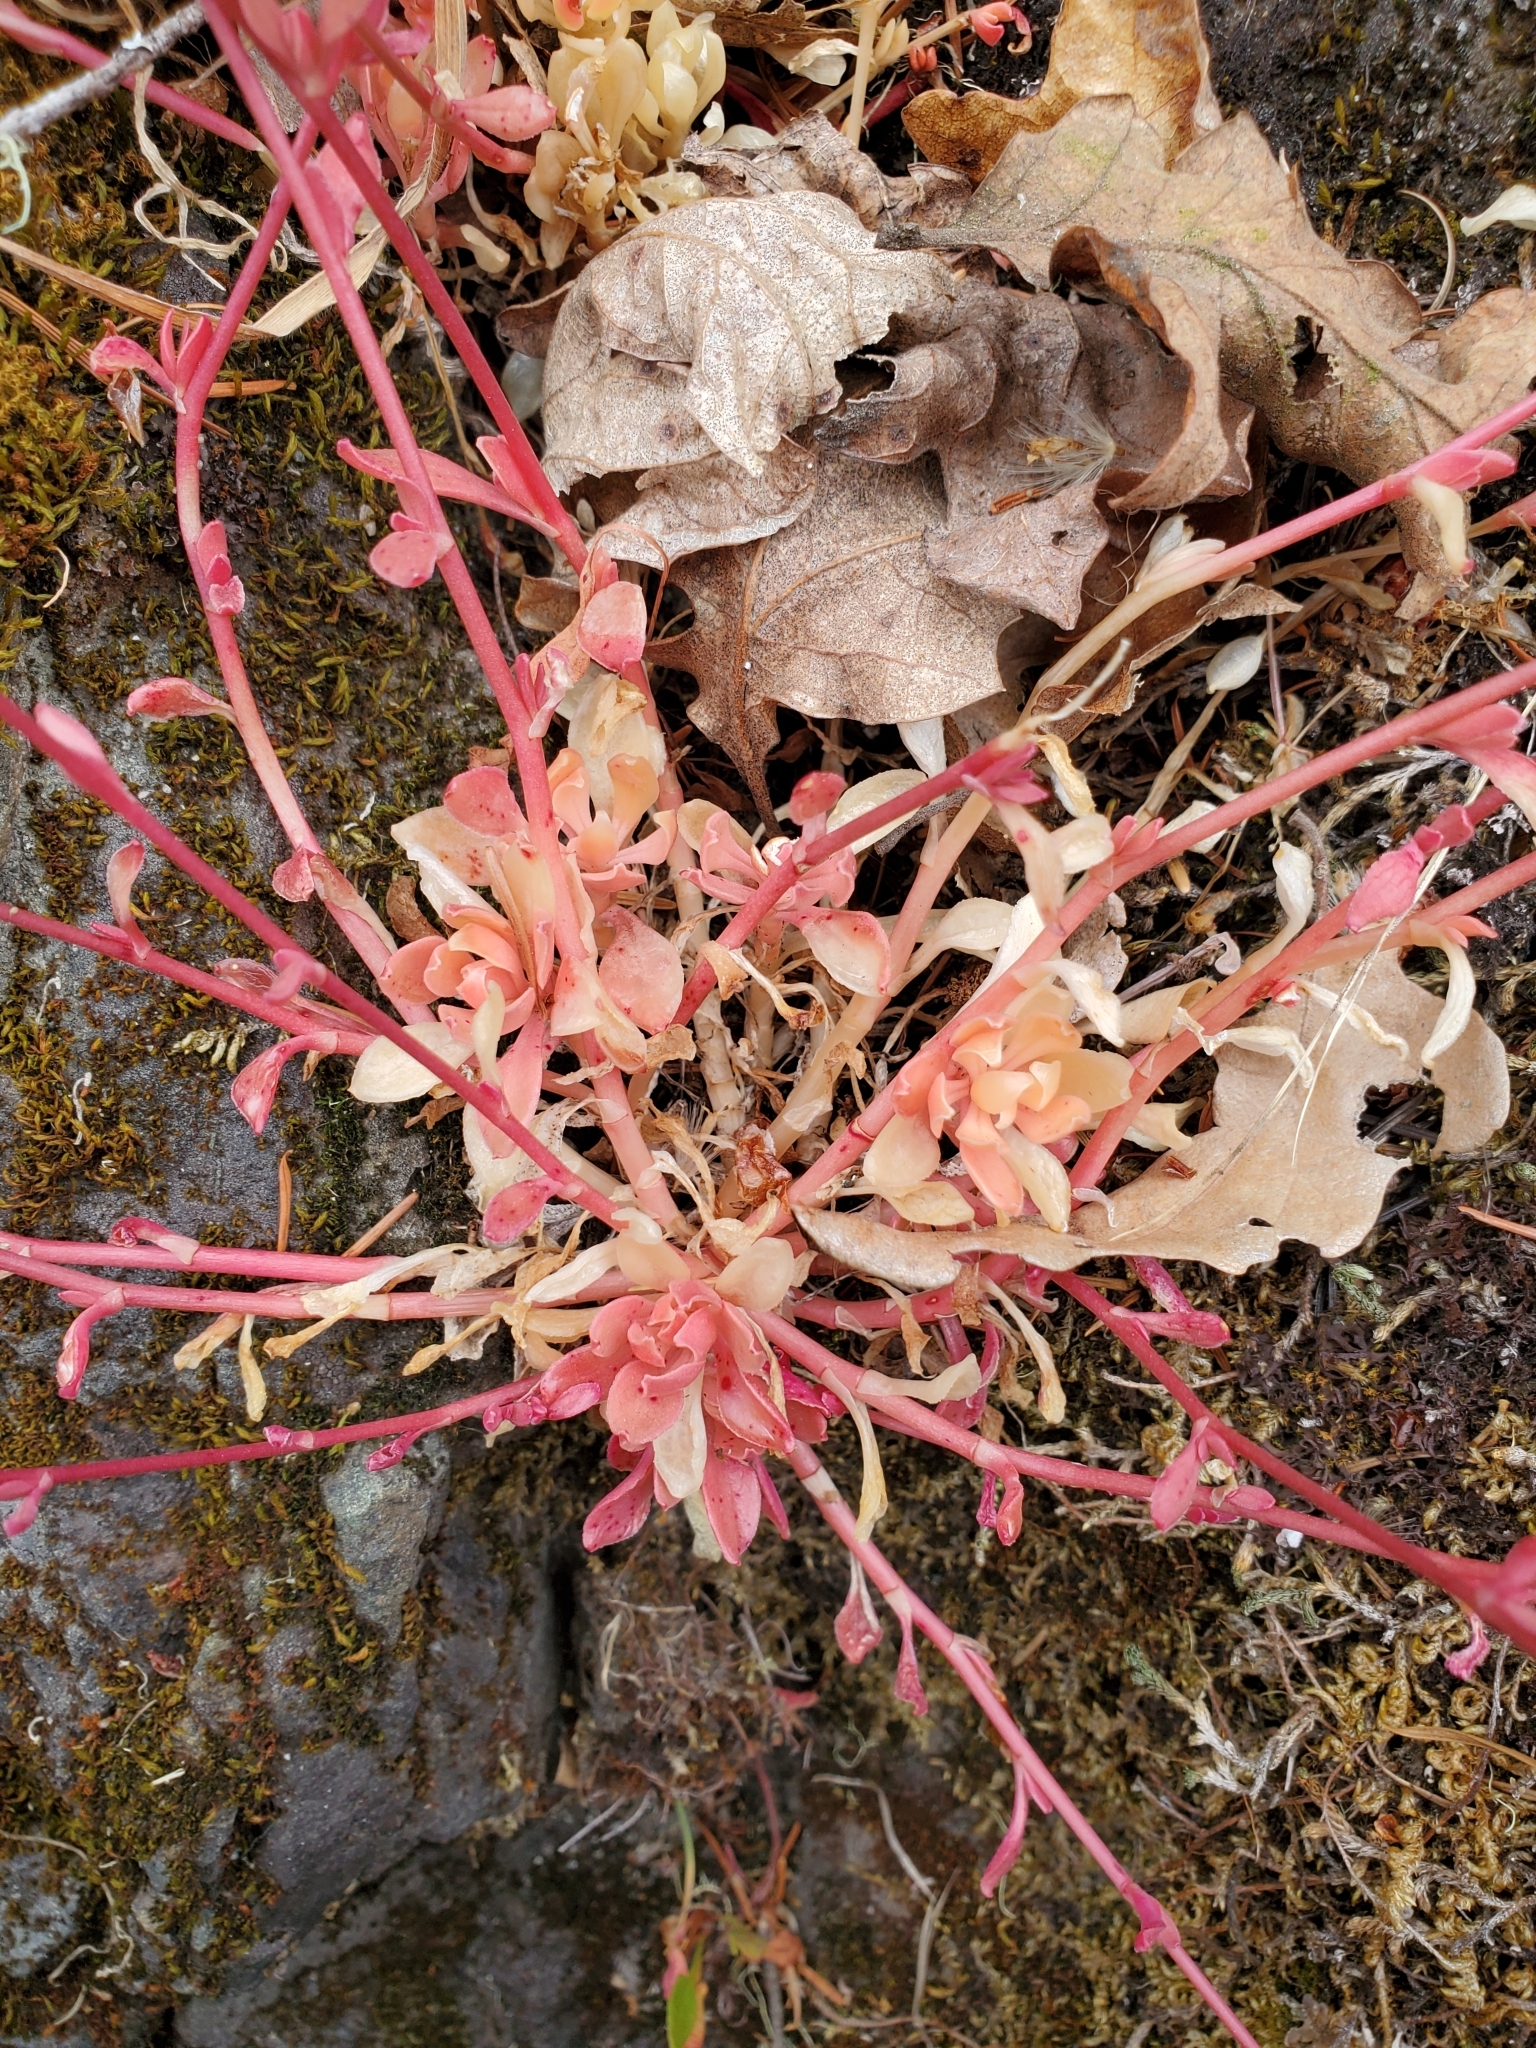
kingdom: Plantae
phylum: Tracheophyta
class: Magnoliopsida
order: Caryophyllales
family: Montiaceae
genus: Montia
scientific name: Montia parvifolia
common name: Small-leaved blinks
